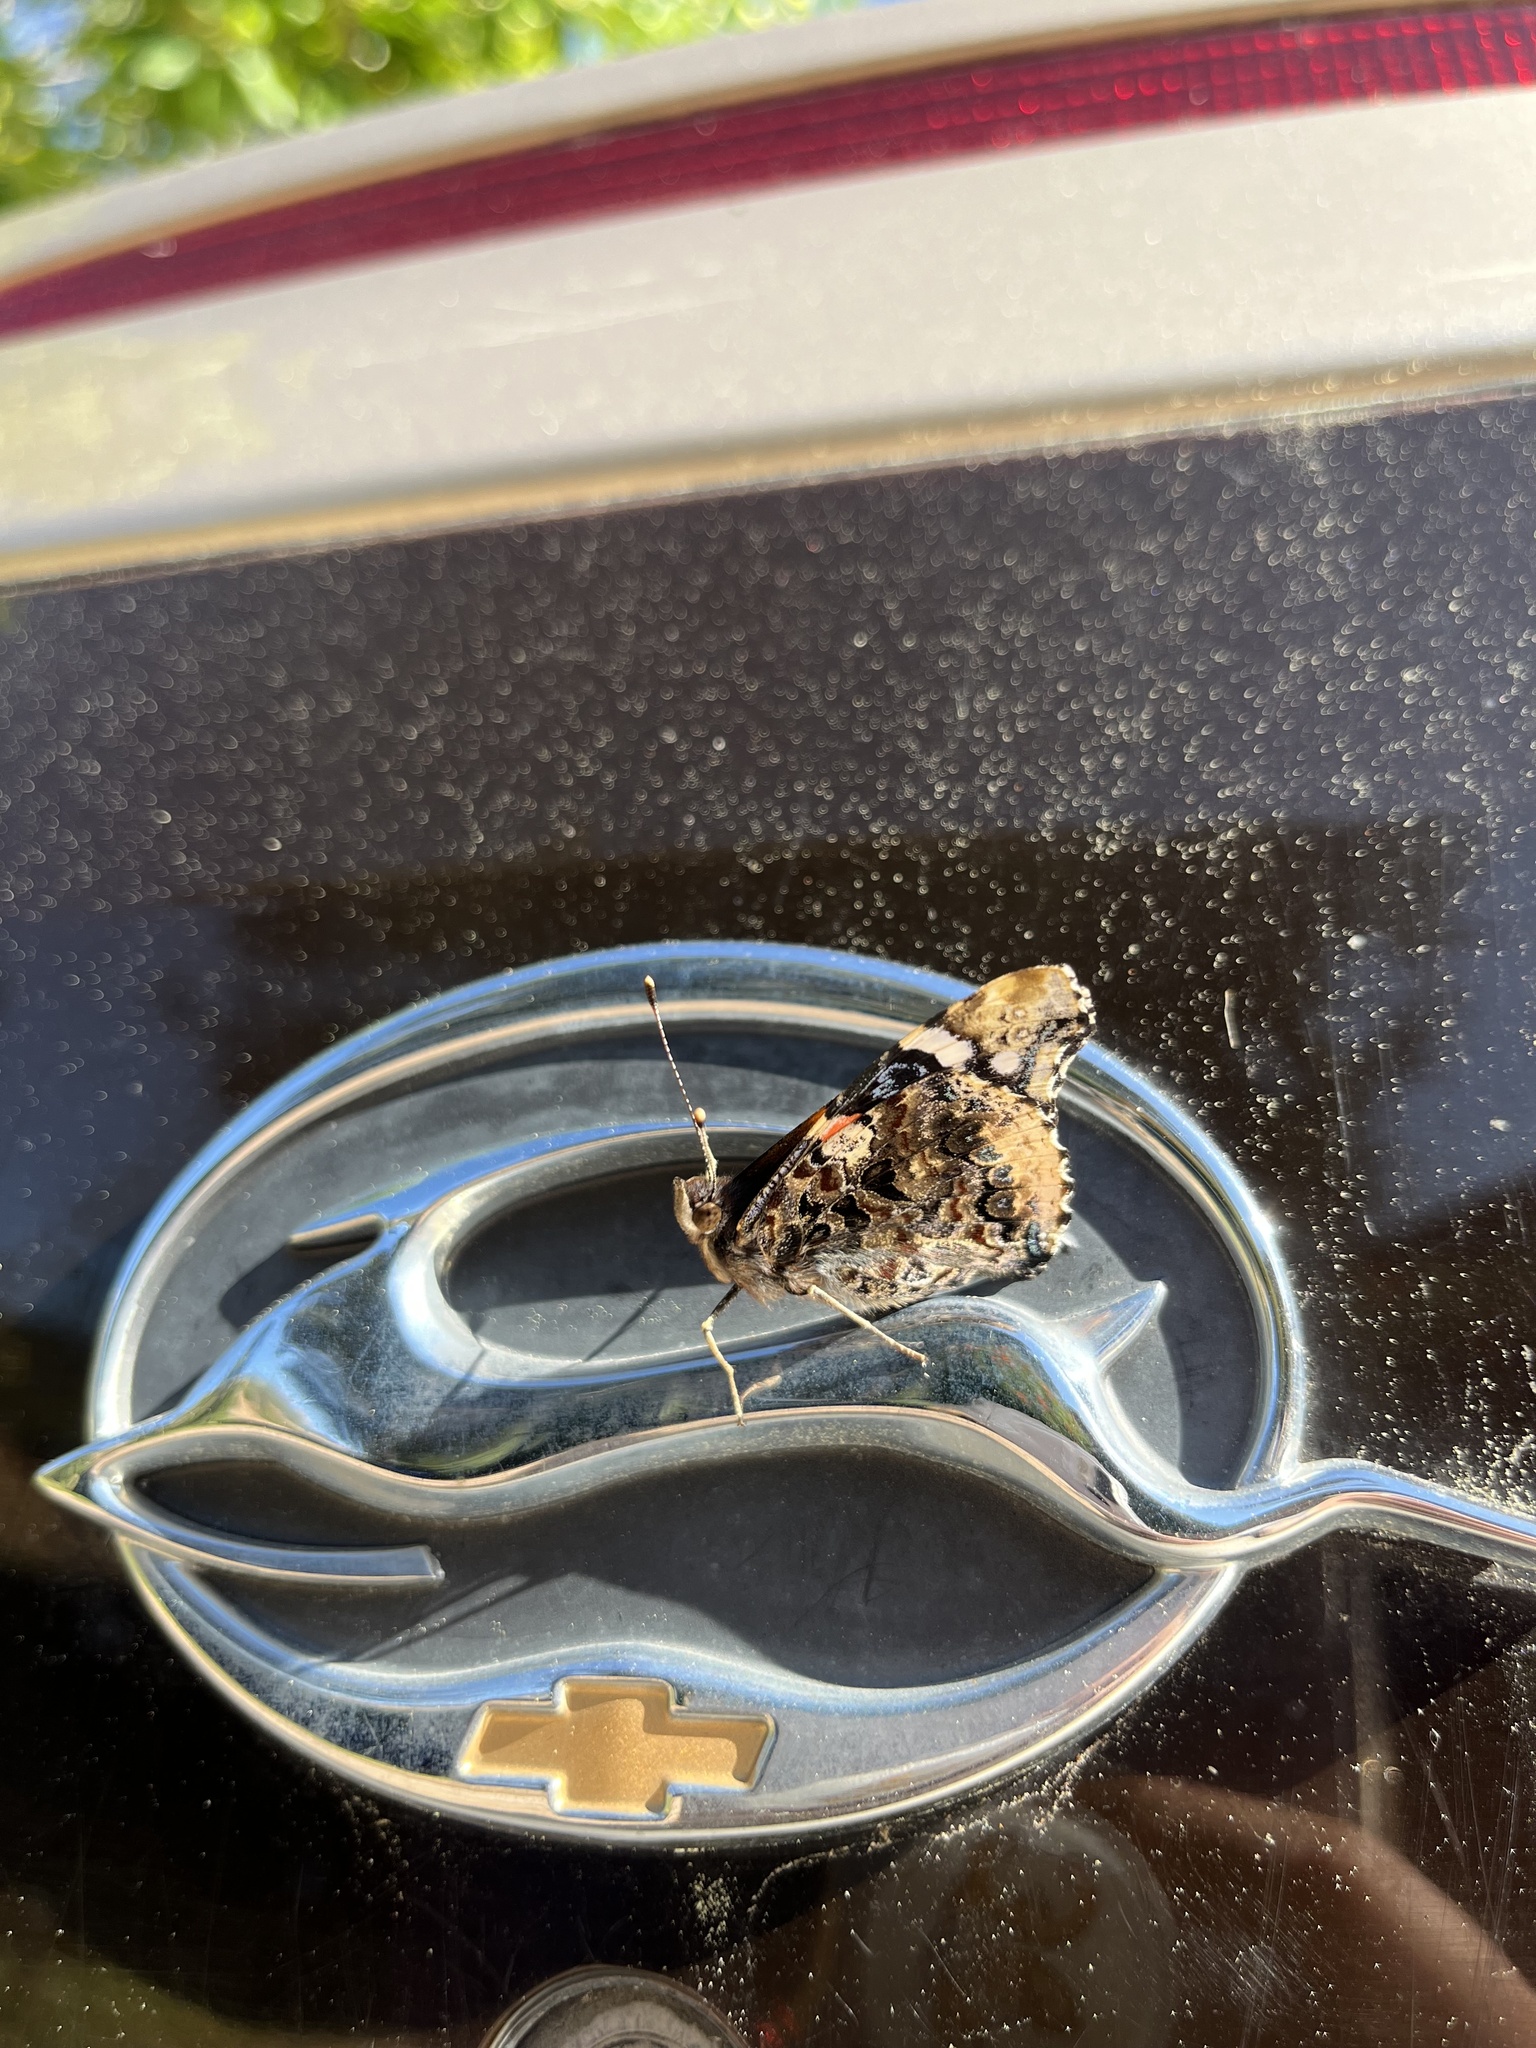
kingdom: Animalia
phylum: Arthropoda
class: Insecta
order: Lepidoptera
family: Nymphalidae
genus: Vanessa
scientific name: Vanessa atalanta
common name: Red admiral
